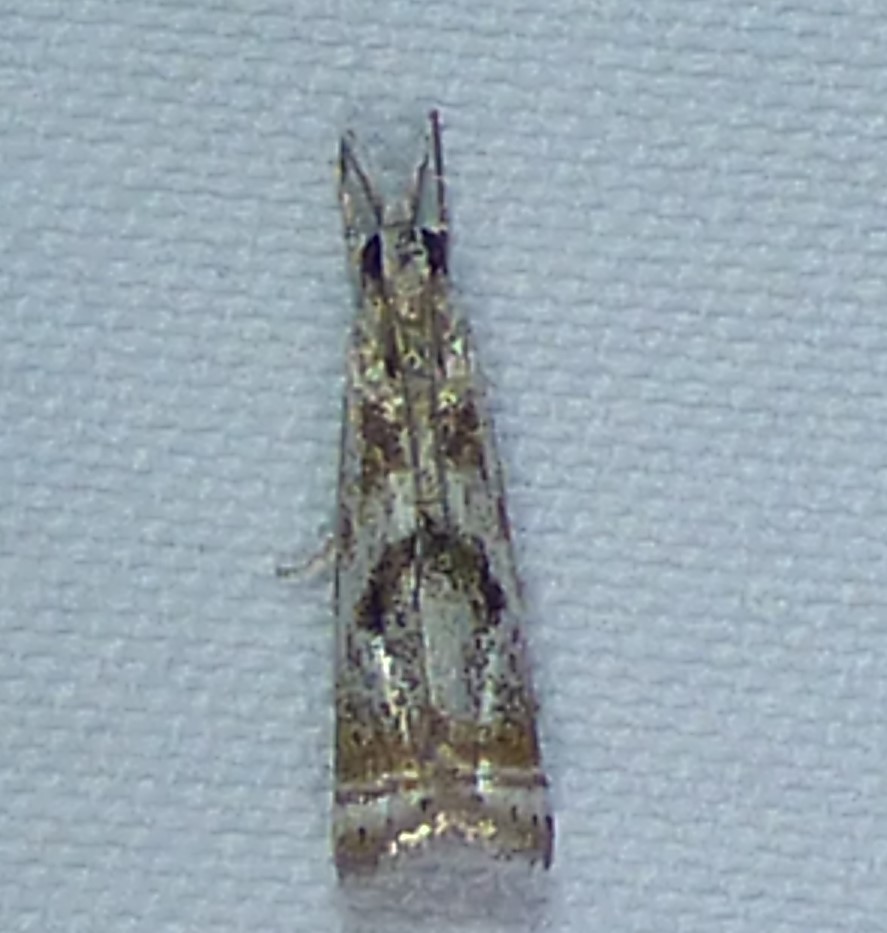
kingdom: Animalia
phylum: Arthropoda
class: Insecta
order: Lepidoptera
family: Crambidae
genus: Microcrambus
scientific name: Microcrambus elegans
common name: Elegant grass-veneer
